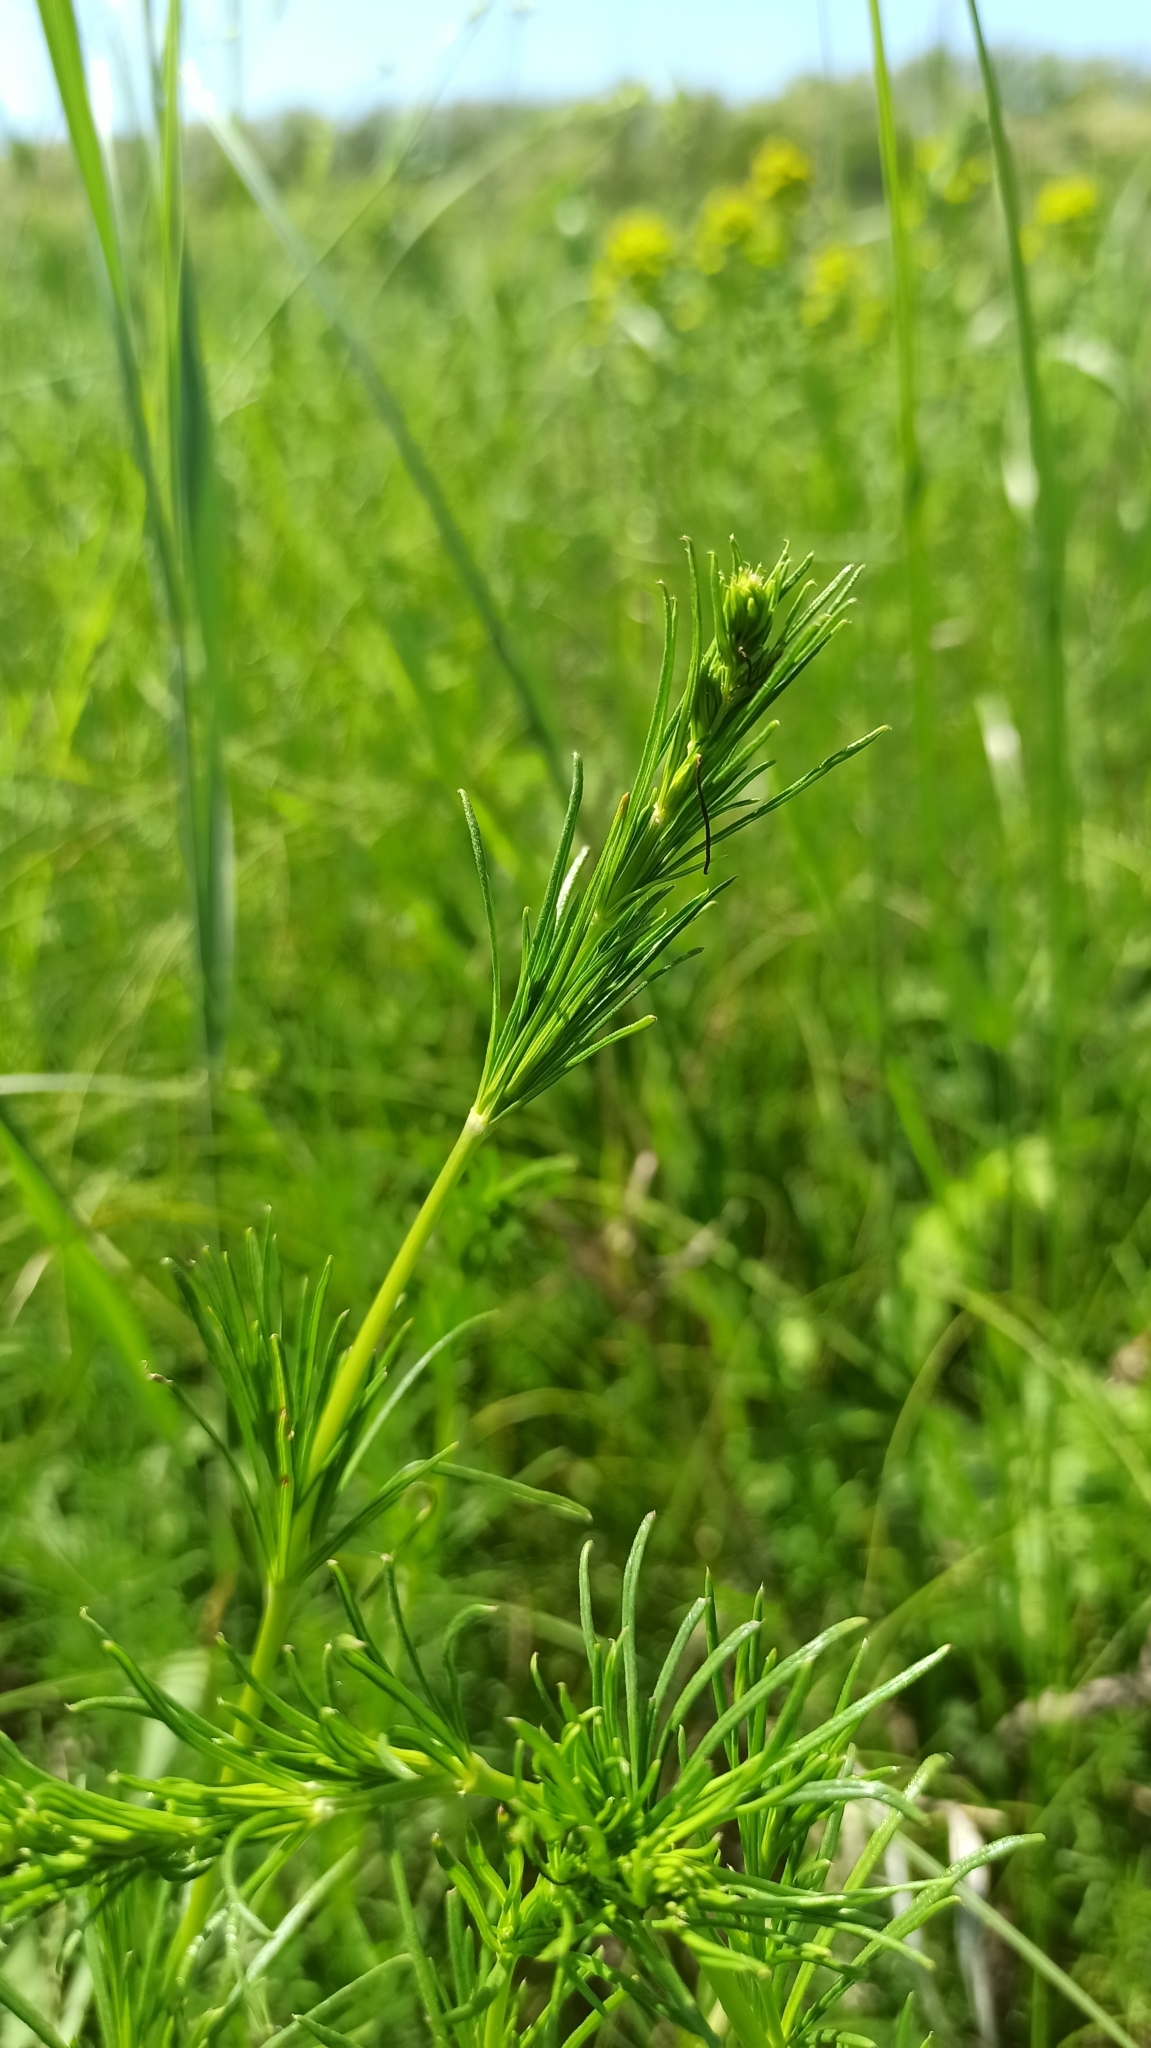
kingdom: Plantae
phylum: Tracheophyta
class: Magnoliopsida
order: Gentianales
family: Rubiaceae
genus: Galium
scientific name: Galium verum
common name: Lady's bedstraw
